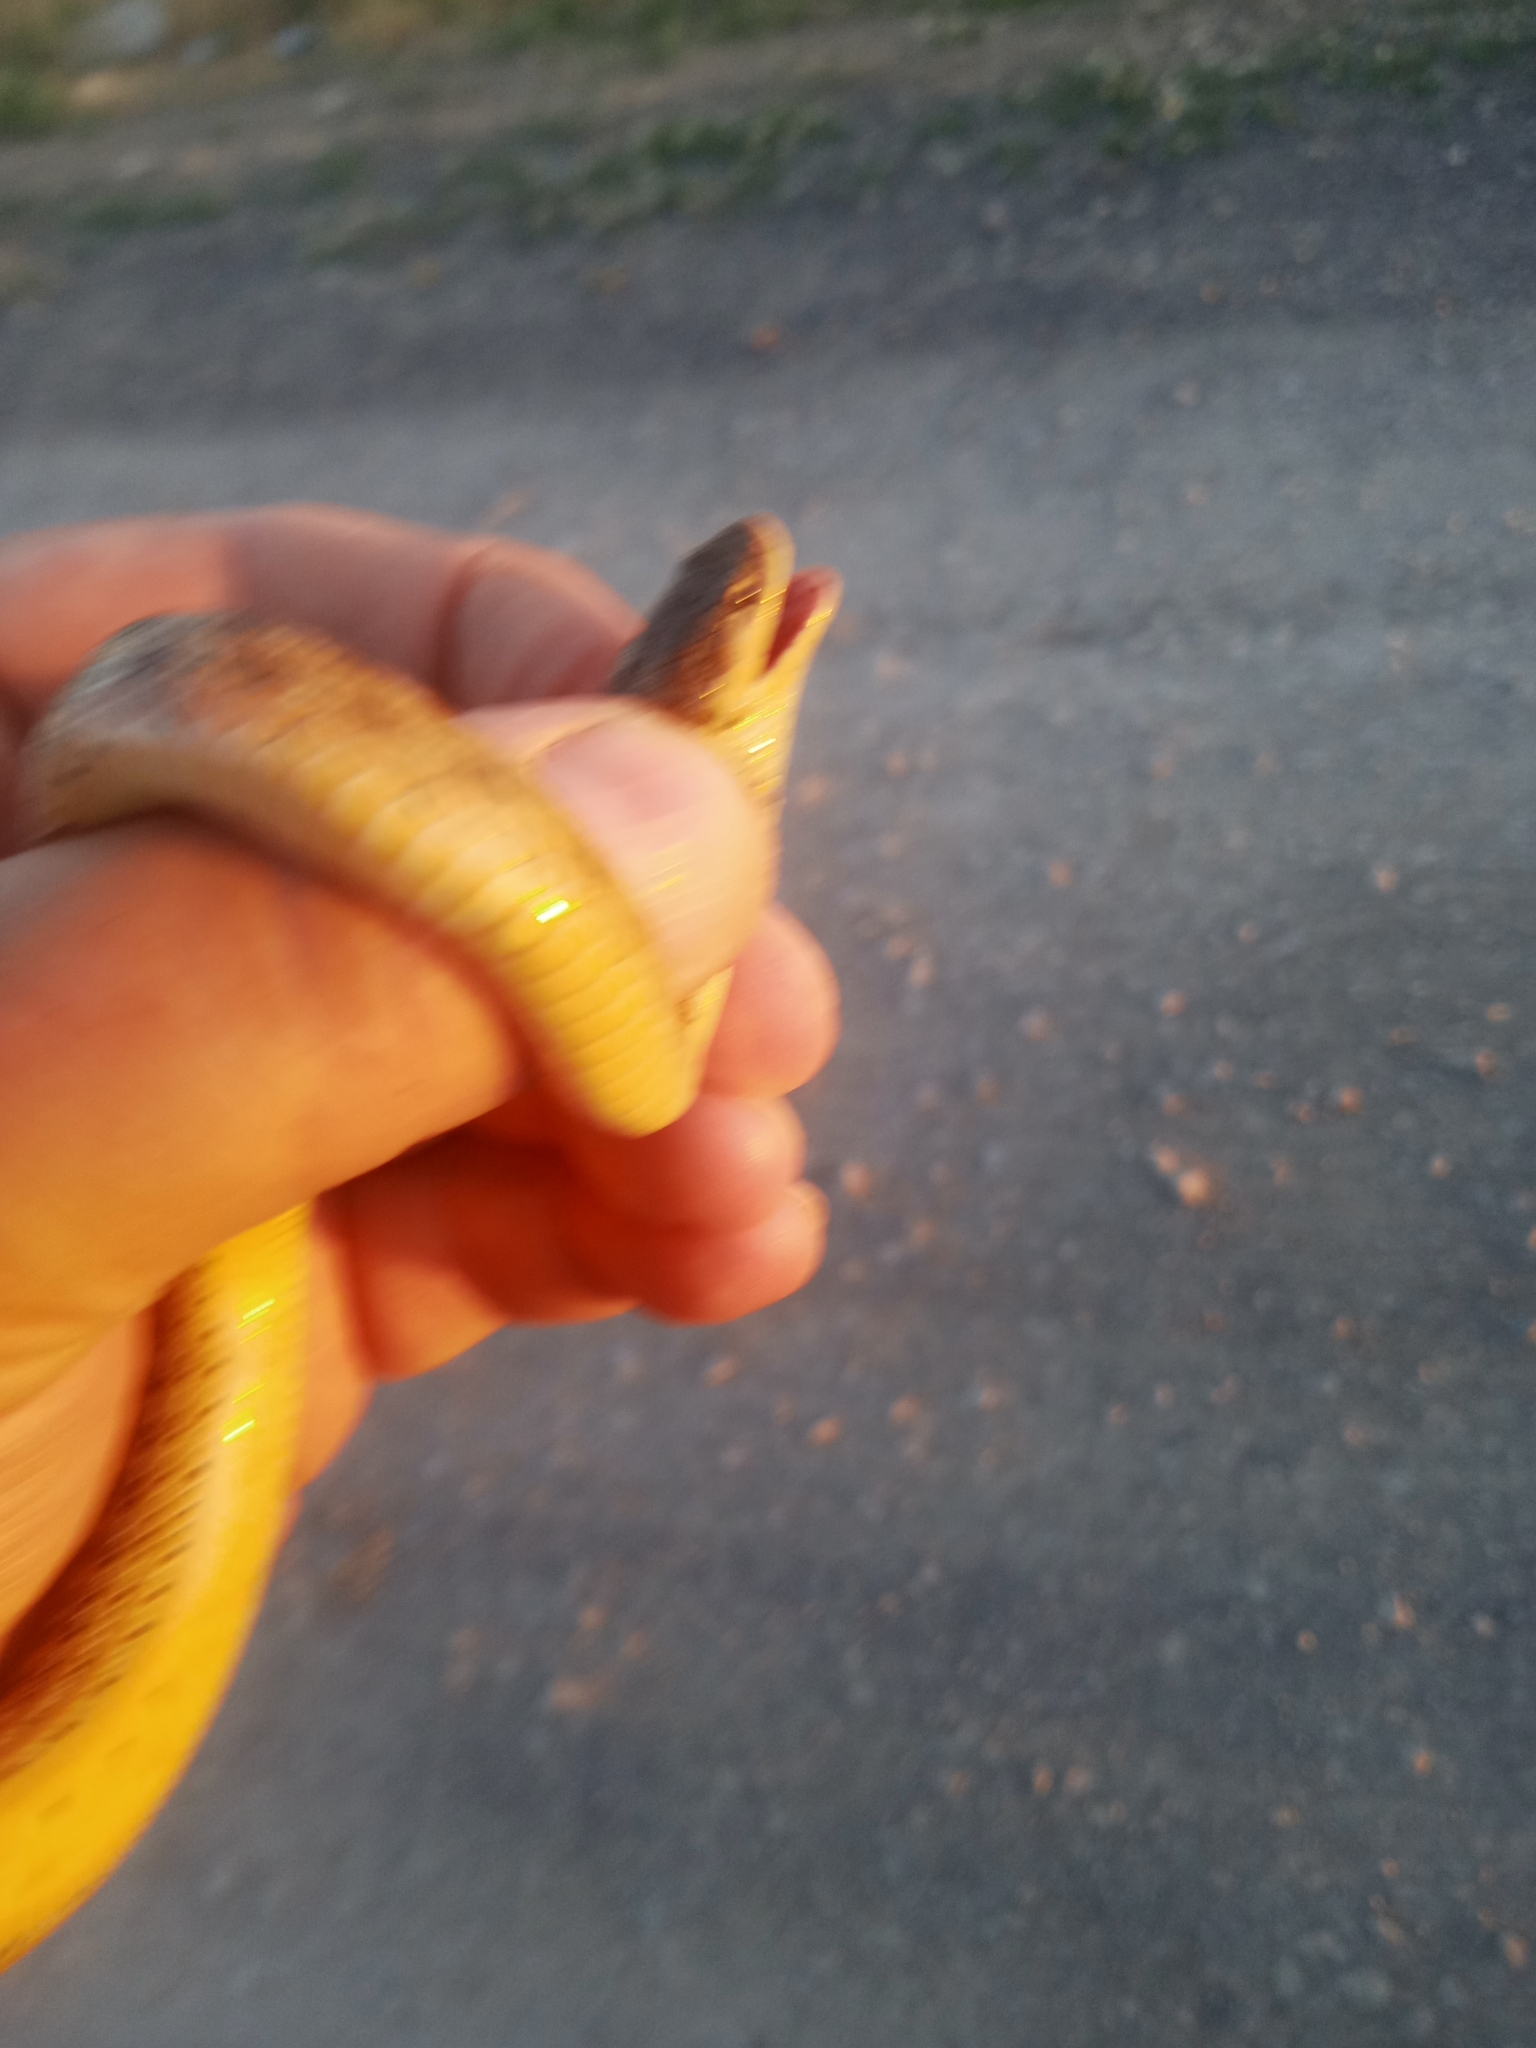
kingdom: Animalia
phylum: Chordata
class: Squamata
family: Colubridae
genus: Macroprotodon
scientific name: Macroprotodon brevis
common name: Iberian false smooth snake
